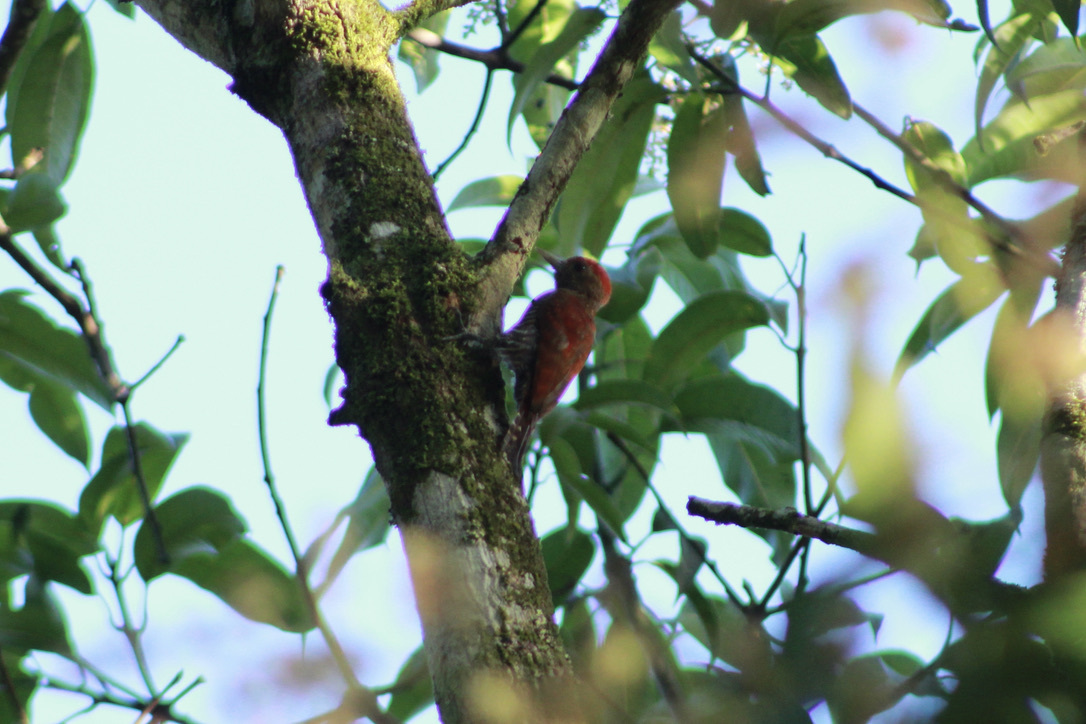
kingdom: Animalia
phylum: Chordata
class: Aves
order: Piciformes
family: Picidae
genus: Dryobates
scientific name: Dryobates sanguineus
